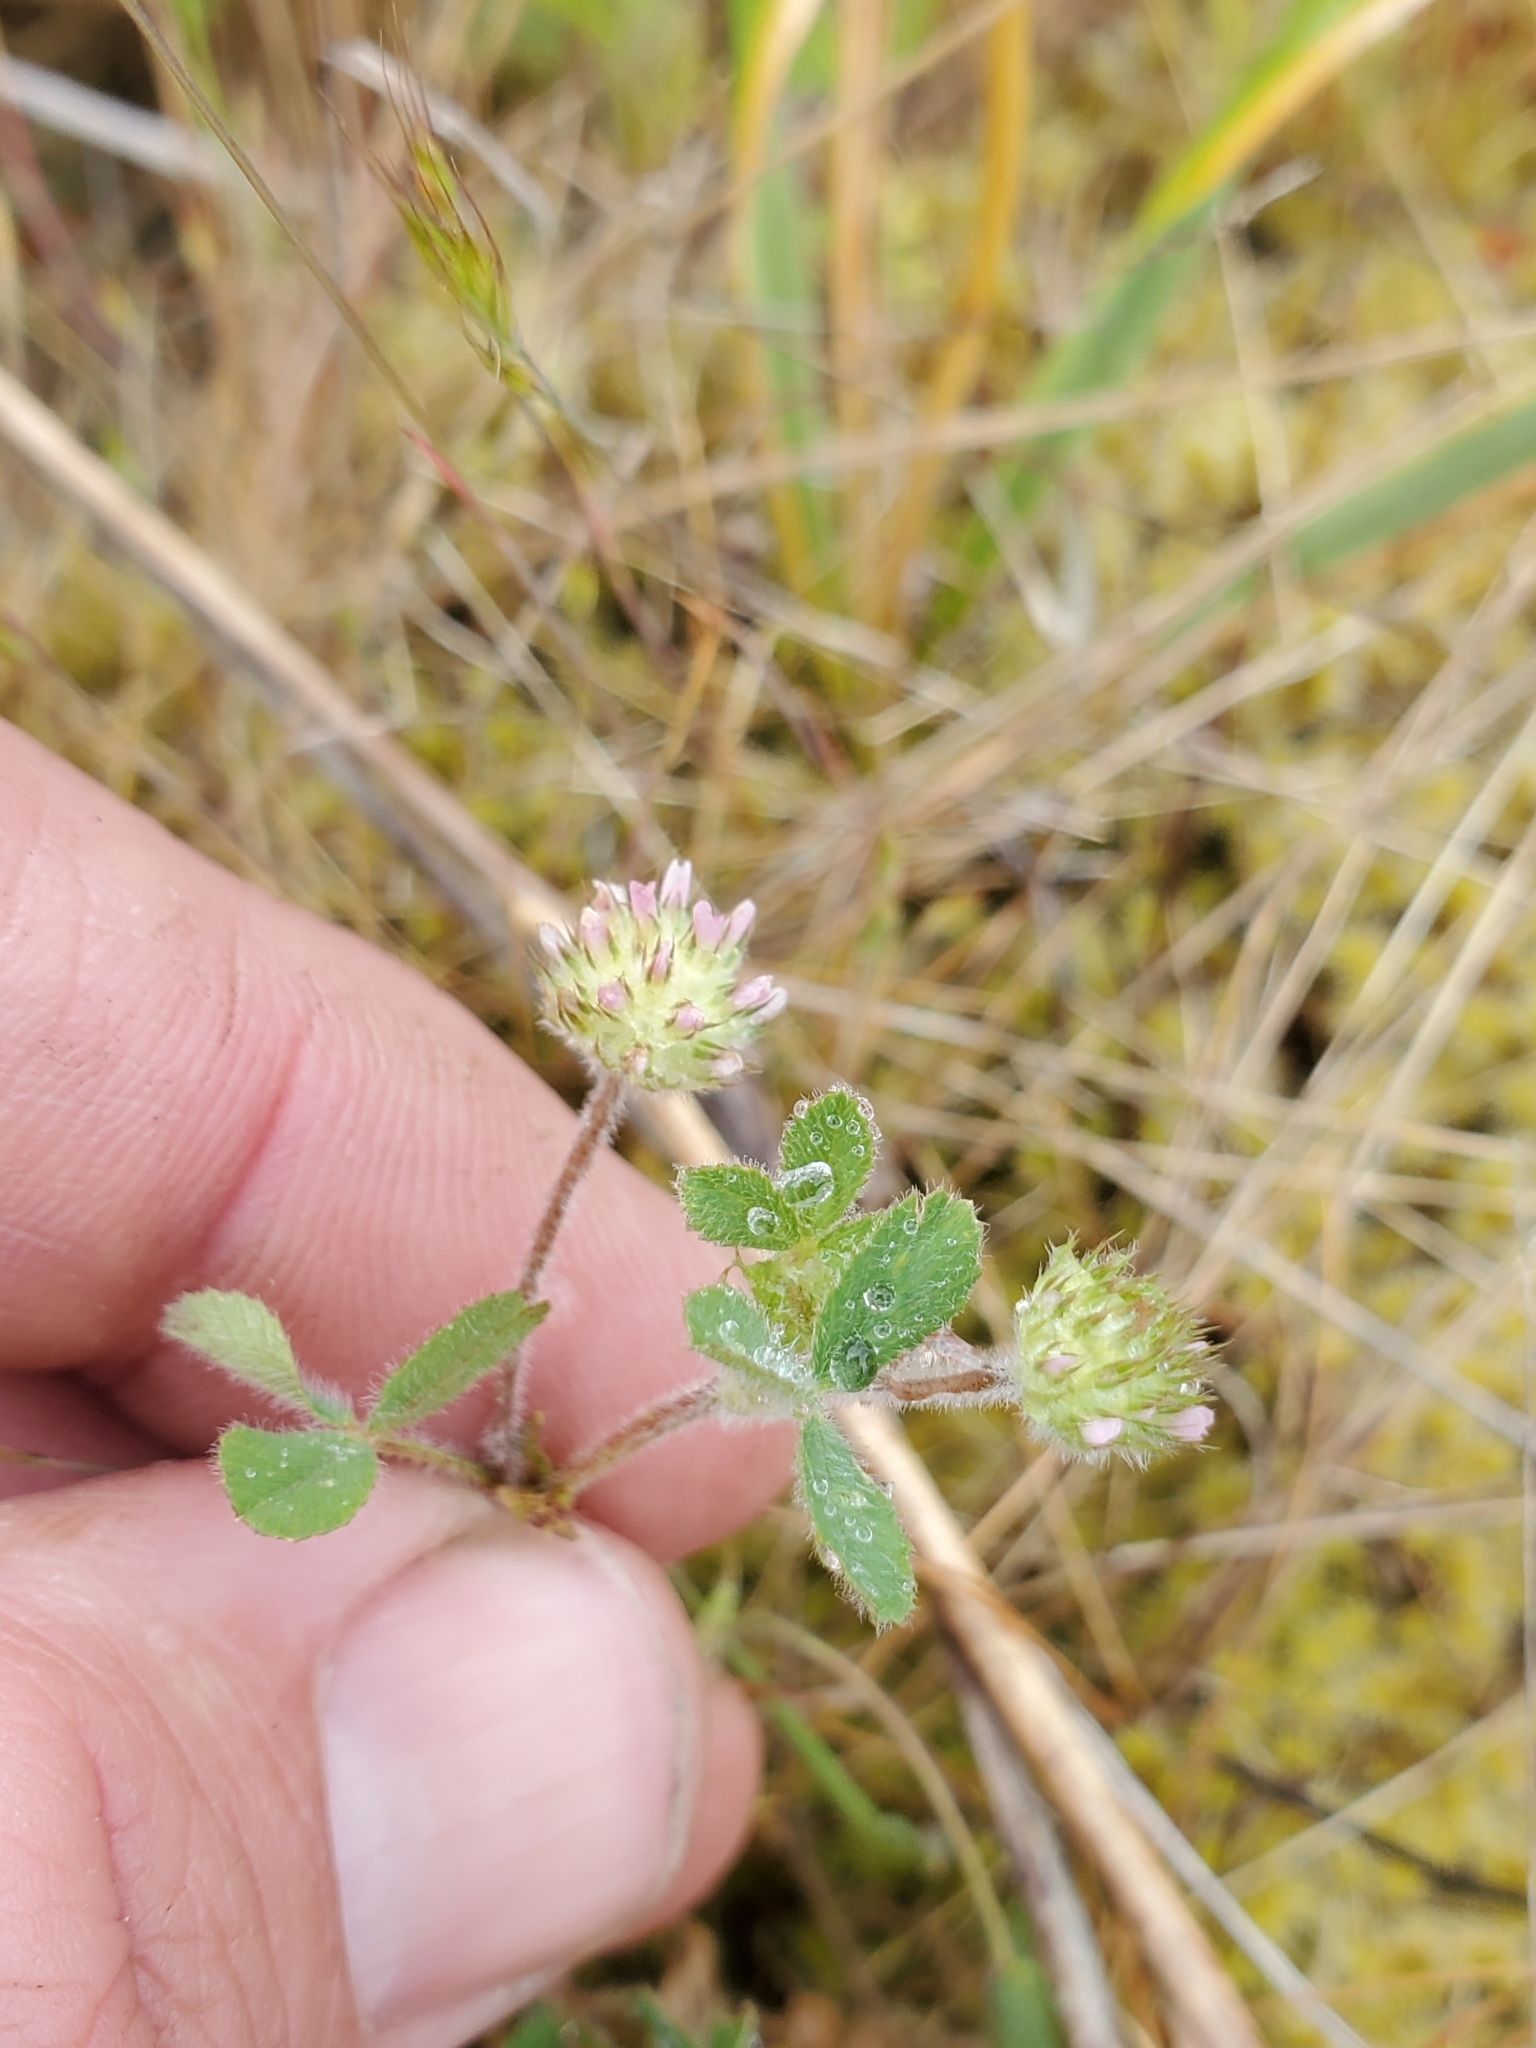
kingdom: Plantae
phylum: Tracheophyta
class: Magnoliopsida
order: Fabales
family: Fabaceae
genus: Trifolium
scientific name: Trifolium microcephalum
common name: Maiden clover
